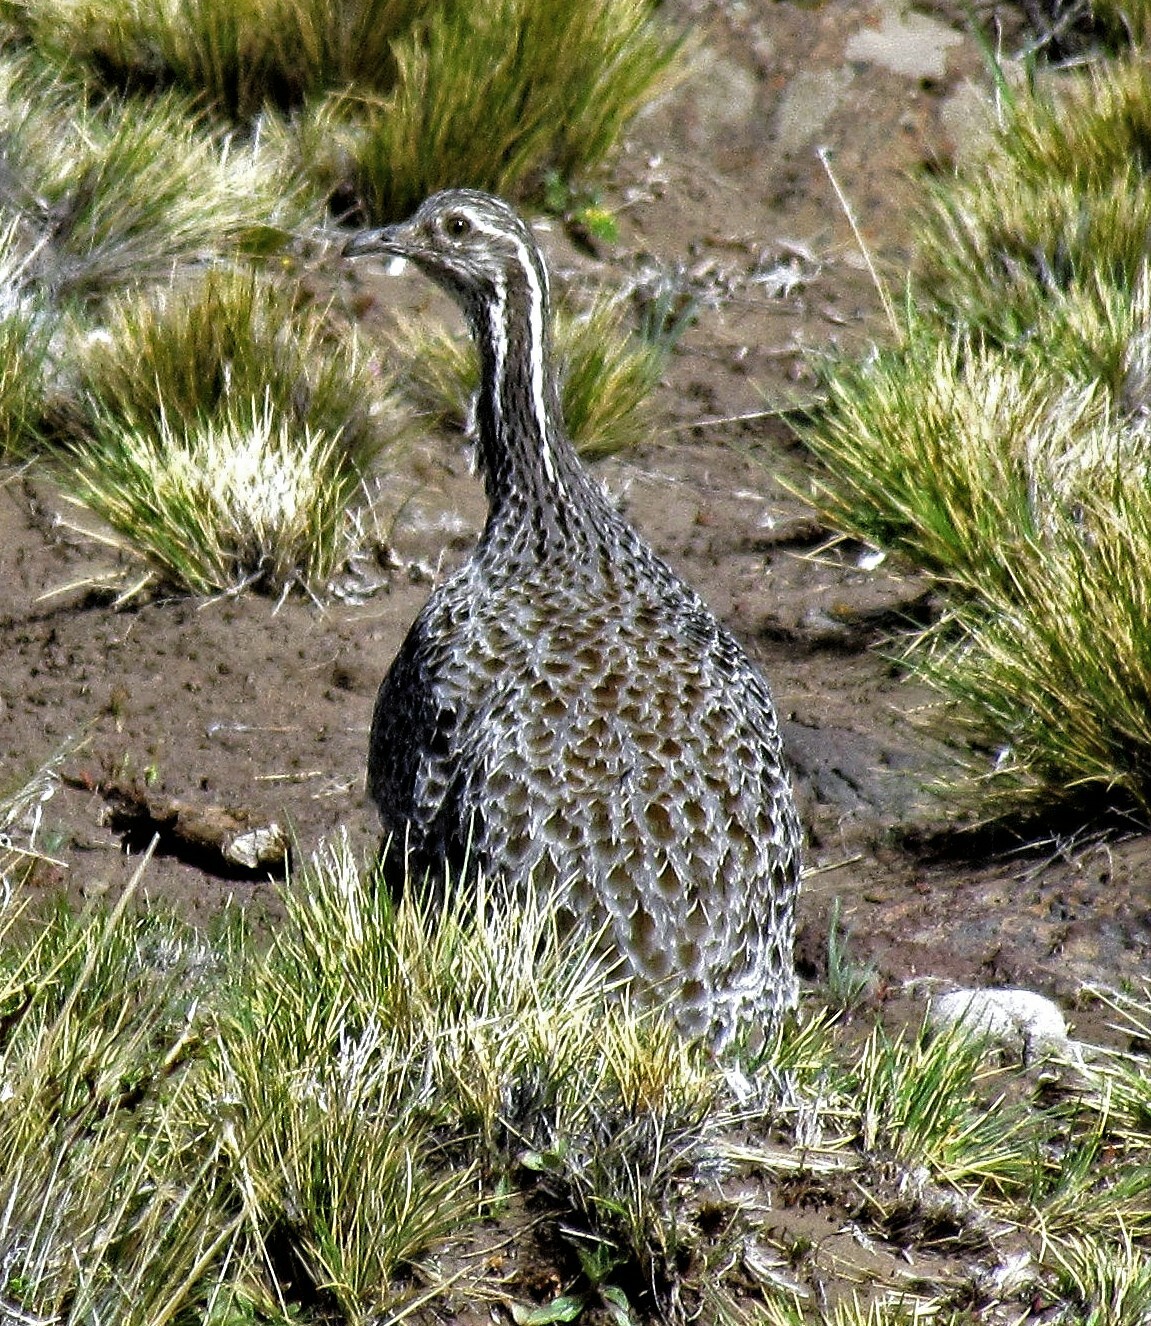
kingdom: Animalia
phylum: Chordata
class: Aves
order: Tinamiformes
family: Tinamidae
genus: Tinamotis
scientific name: Tinamotis ingoufi
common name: Patagonian tinamou
